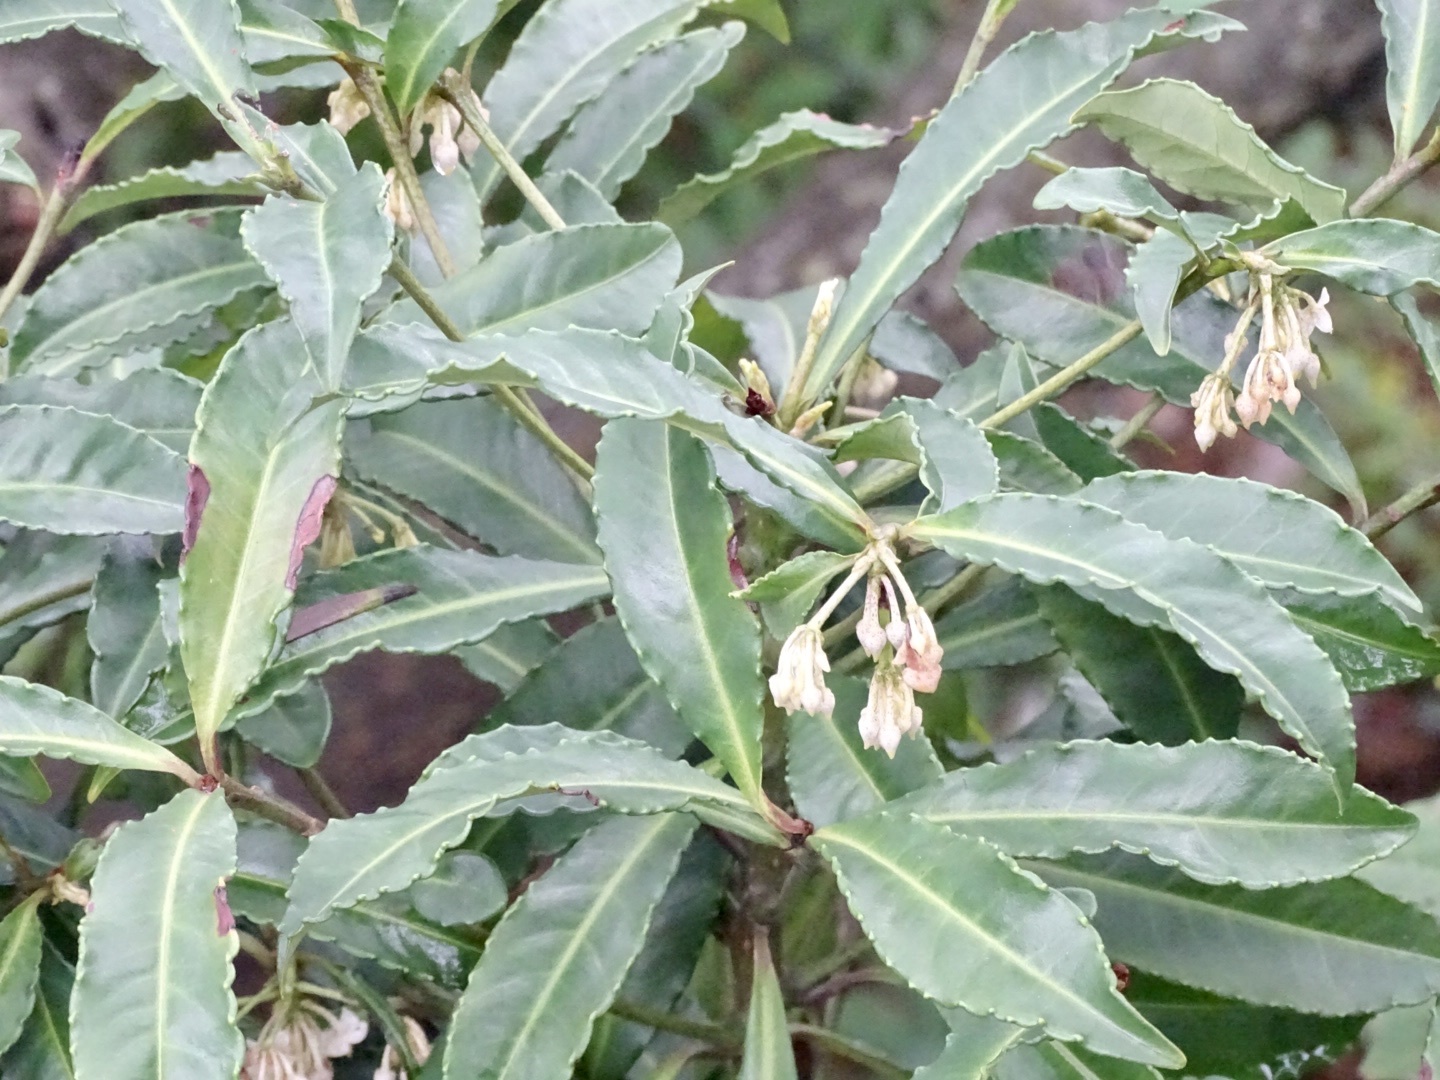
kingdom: Plantae
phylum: Tracheophyta
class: Magnoliopsida
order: Ericales
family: Primulaceae
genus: Ardisia
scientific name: Ardisia crenata
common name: Hen's eyes
